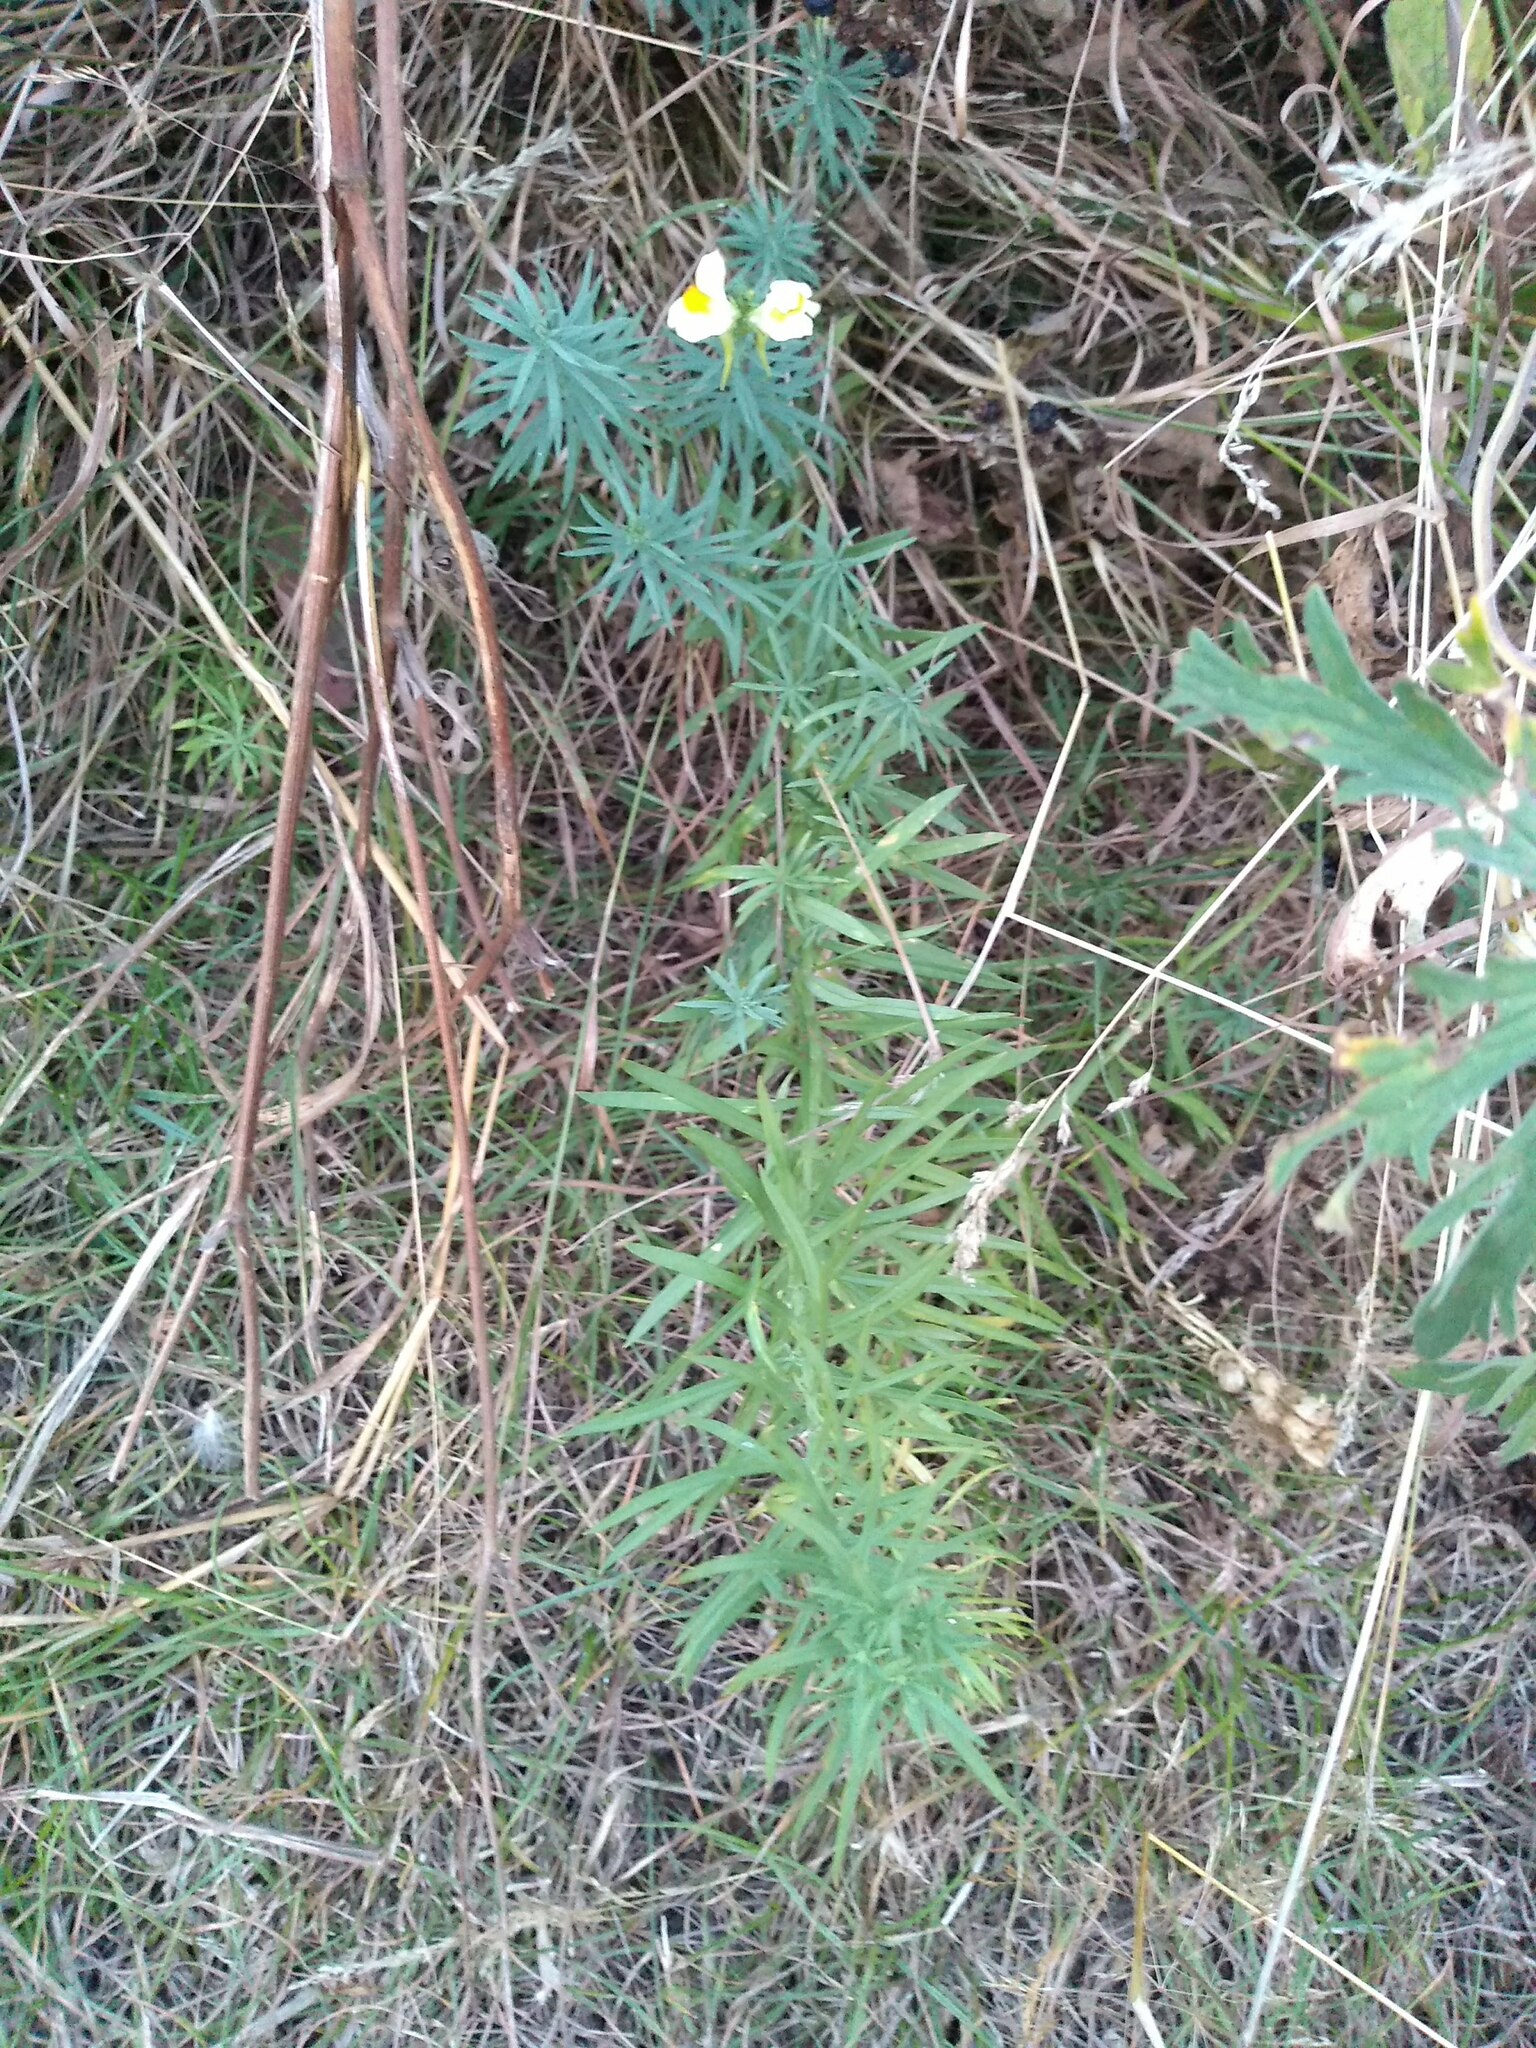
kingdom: Plantae
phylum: Tracheophyta
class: Magnoliopsida
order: Lamiales
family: Plantaginaceae
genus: Linaria
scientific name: Linaria vulgaris
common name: Butter and eggs
